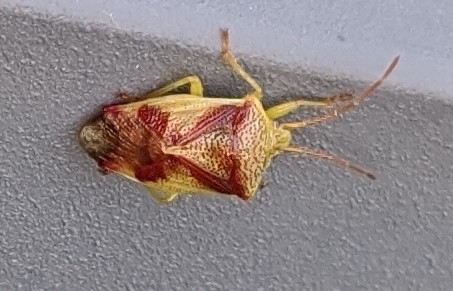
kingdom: Animalia
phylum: Arthropoda
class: Insecta
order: Hemiptera
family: Acanthosomatidae
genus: Elasmostethus
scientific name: Elasmostethus cruciatus
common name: Red-cross shield bug
